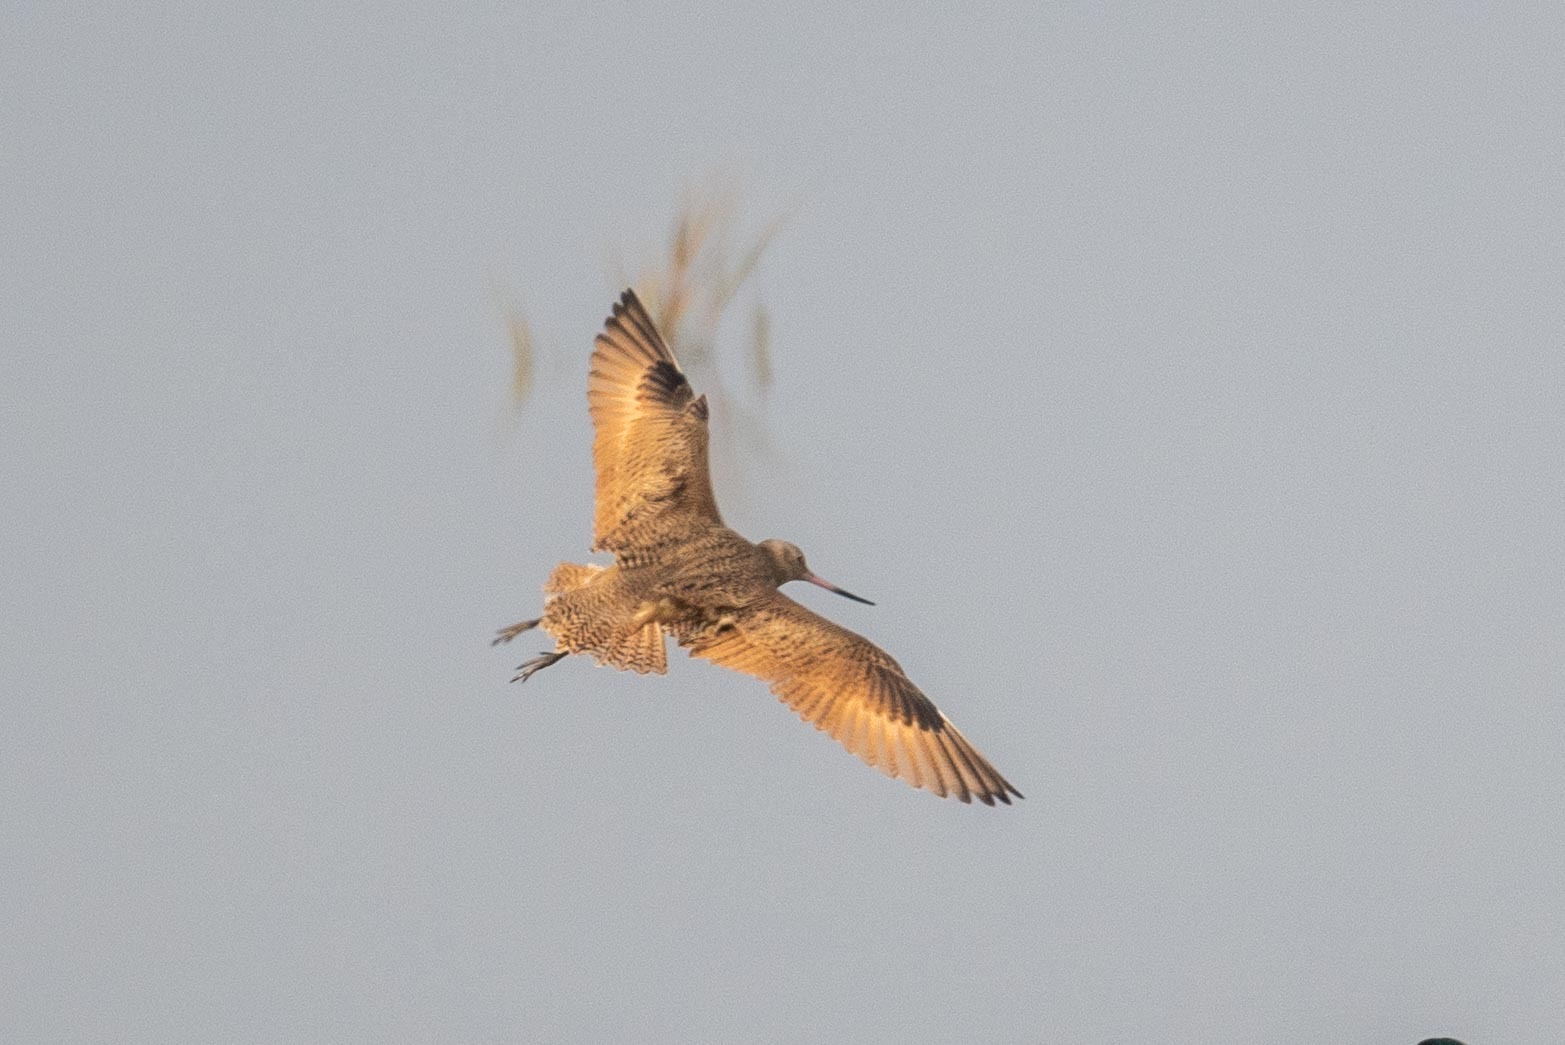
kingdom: Animalia
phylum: Chordata
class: Aves
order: Charadriiformes
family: Scolopacidae
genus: Limosa
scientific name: Limosa fedoa
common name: Marbled godwit
